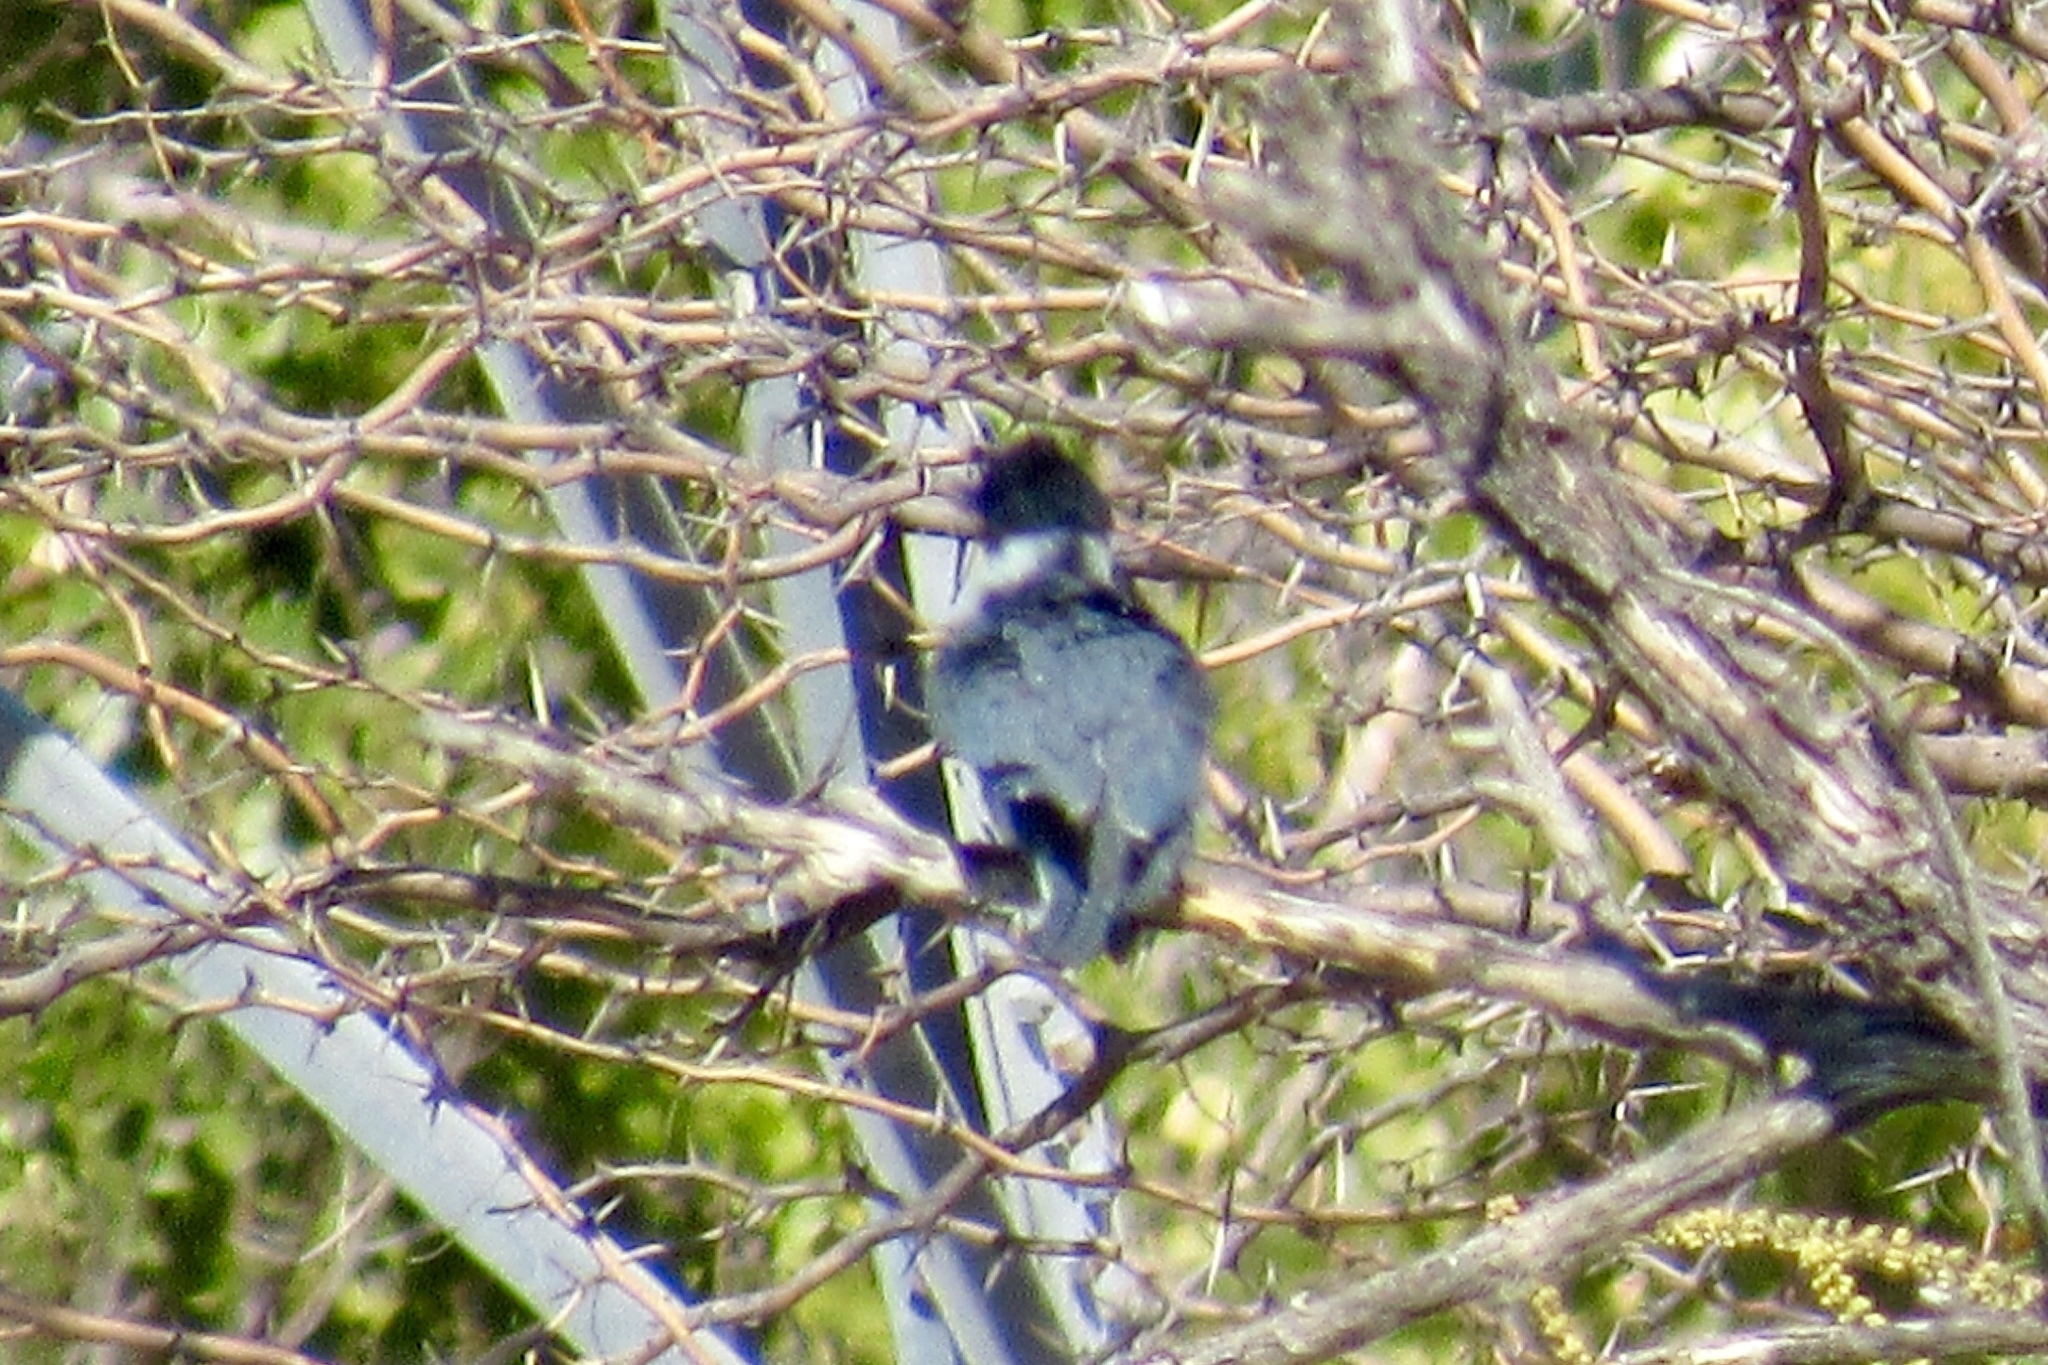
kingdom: Animalia
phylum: Chordata
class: Aves
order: Coraciiformes
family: Alcedinidae
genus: Megaceryle
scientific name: Megaceryle alcyon
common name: Belted kingfisher
